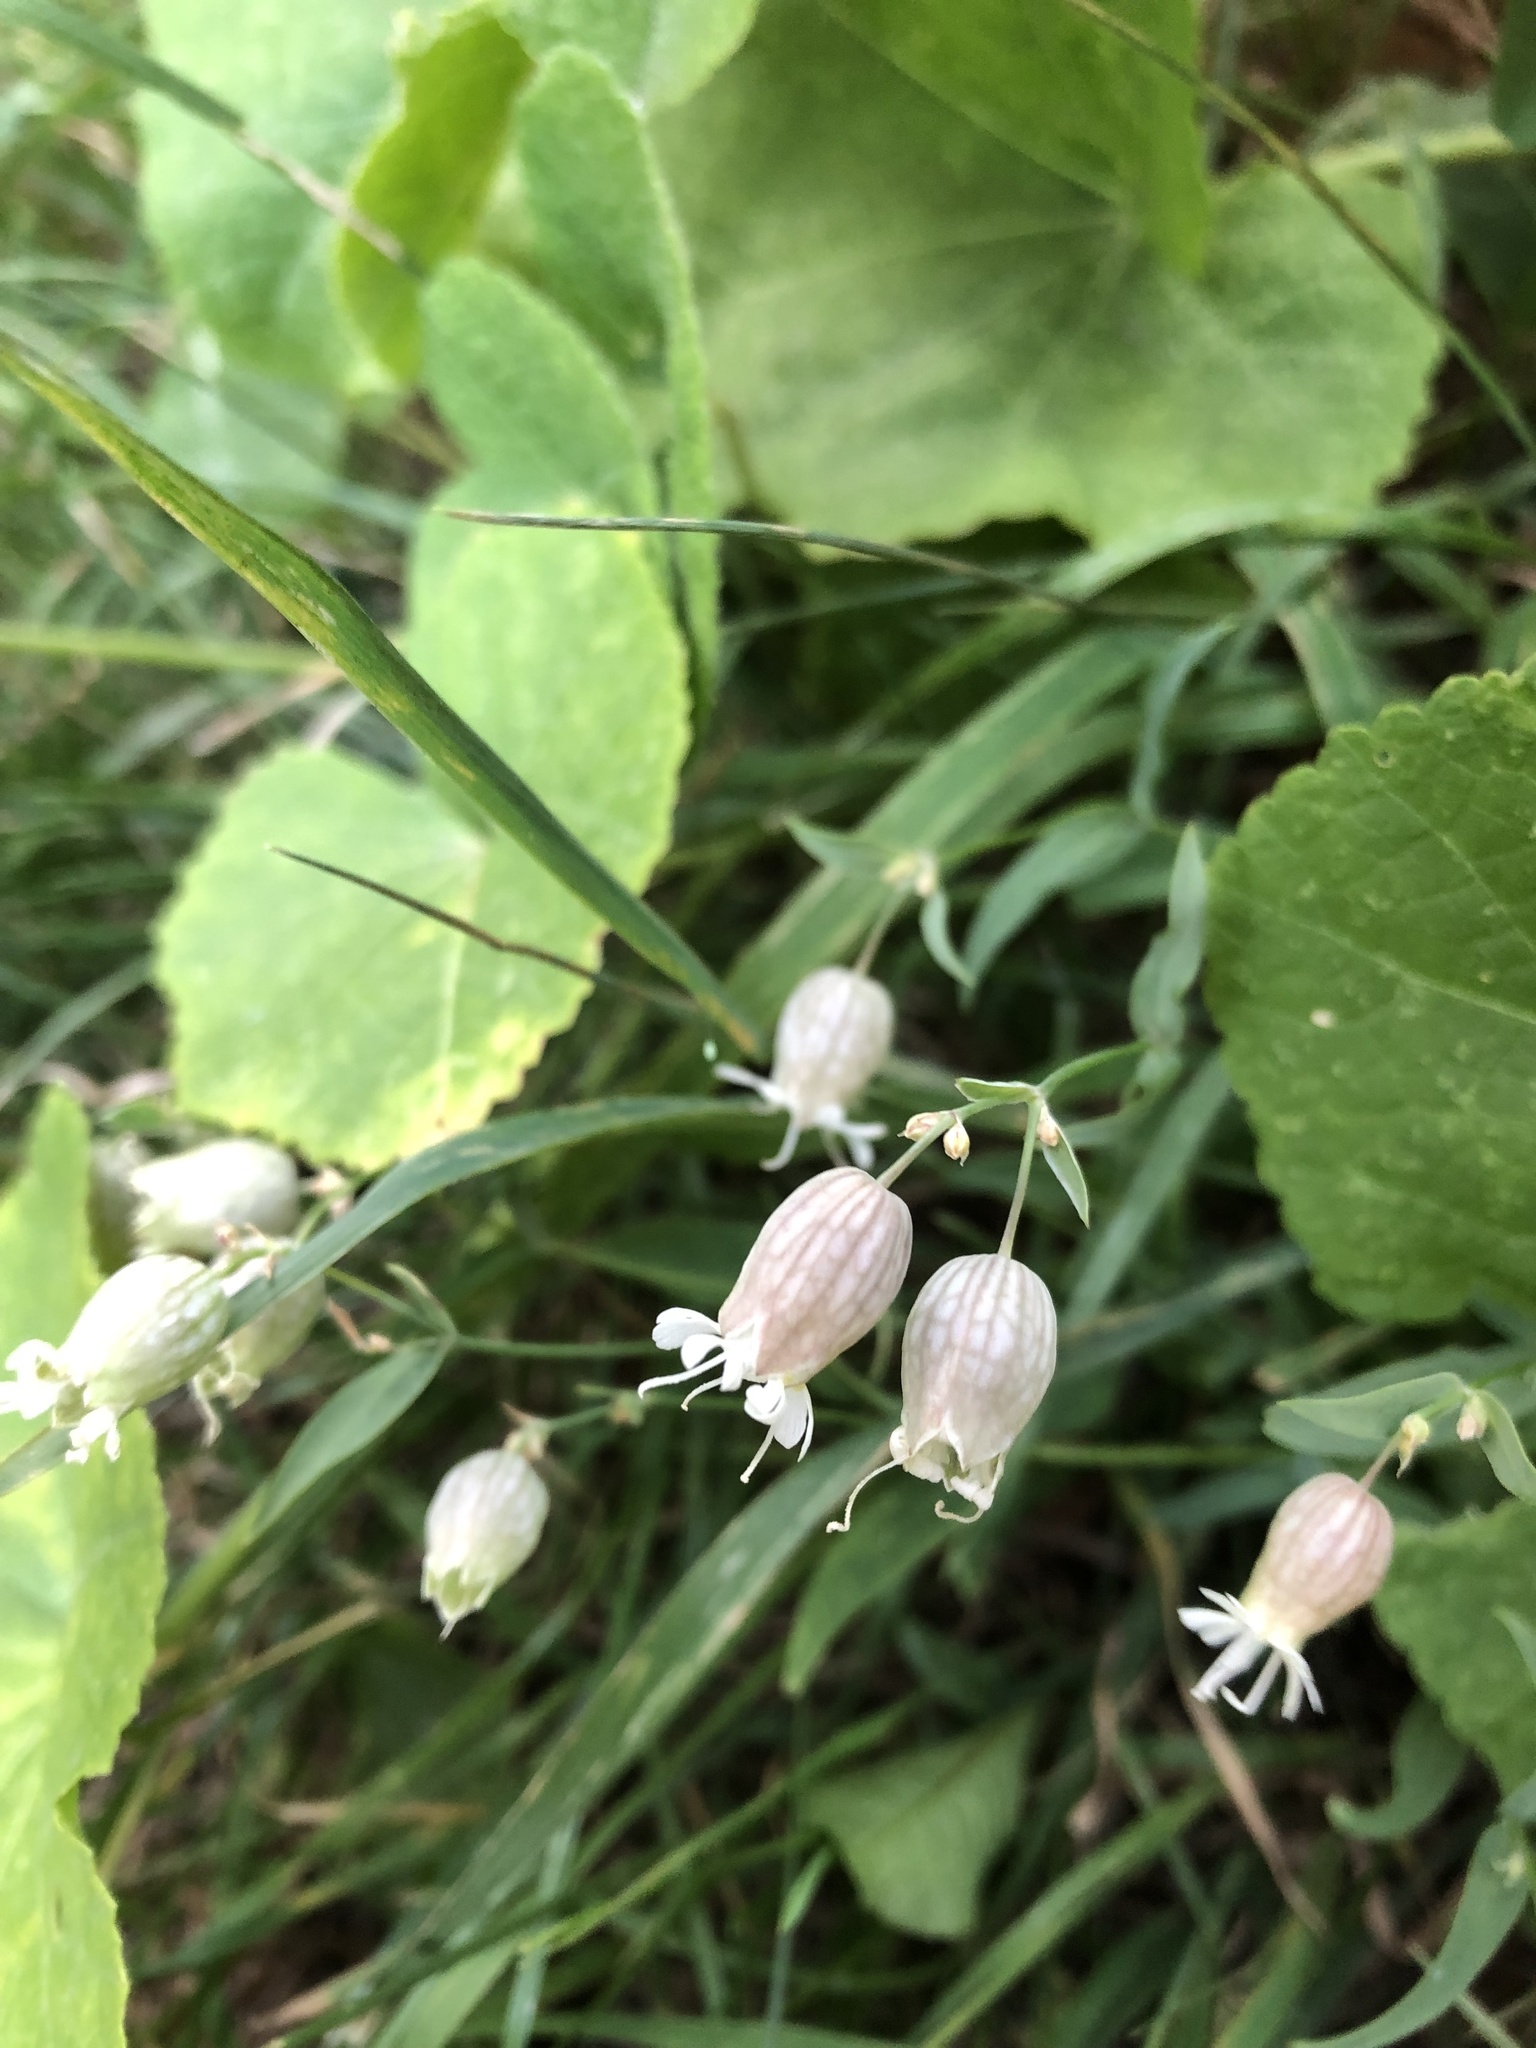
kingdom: Plantae
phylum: Tracheophyta
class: Magnoliopsida
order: Caryophyllales
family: Caryophyllaceae
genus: Silene
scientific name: Silene vulgaris
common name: Bladder campion
